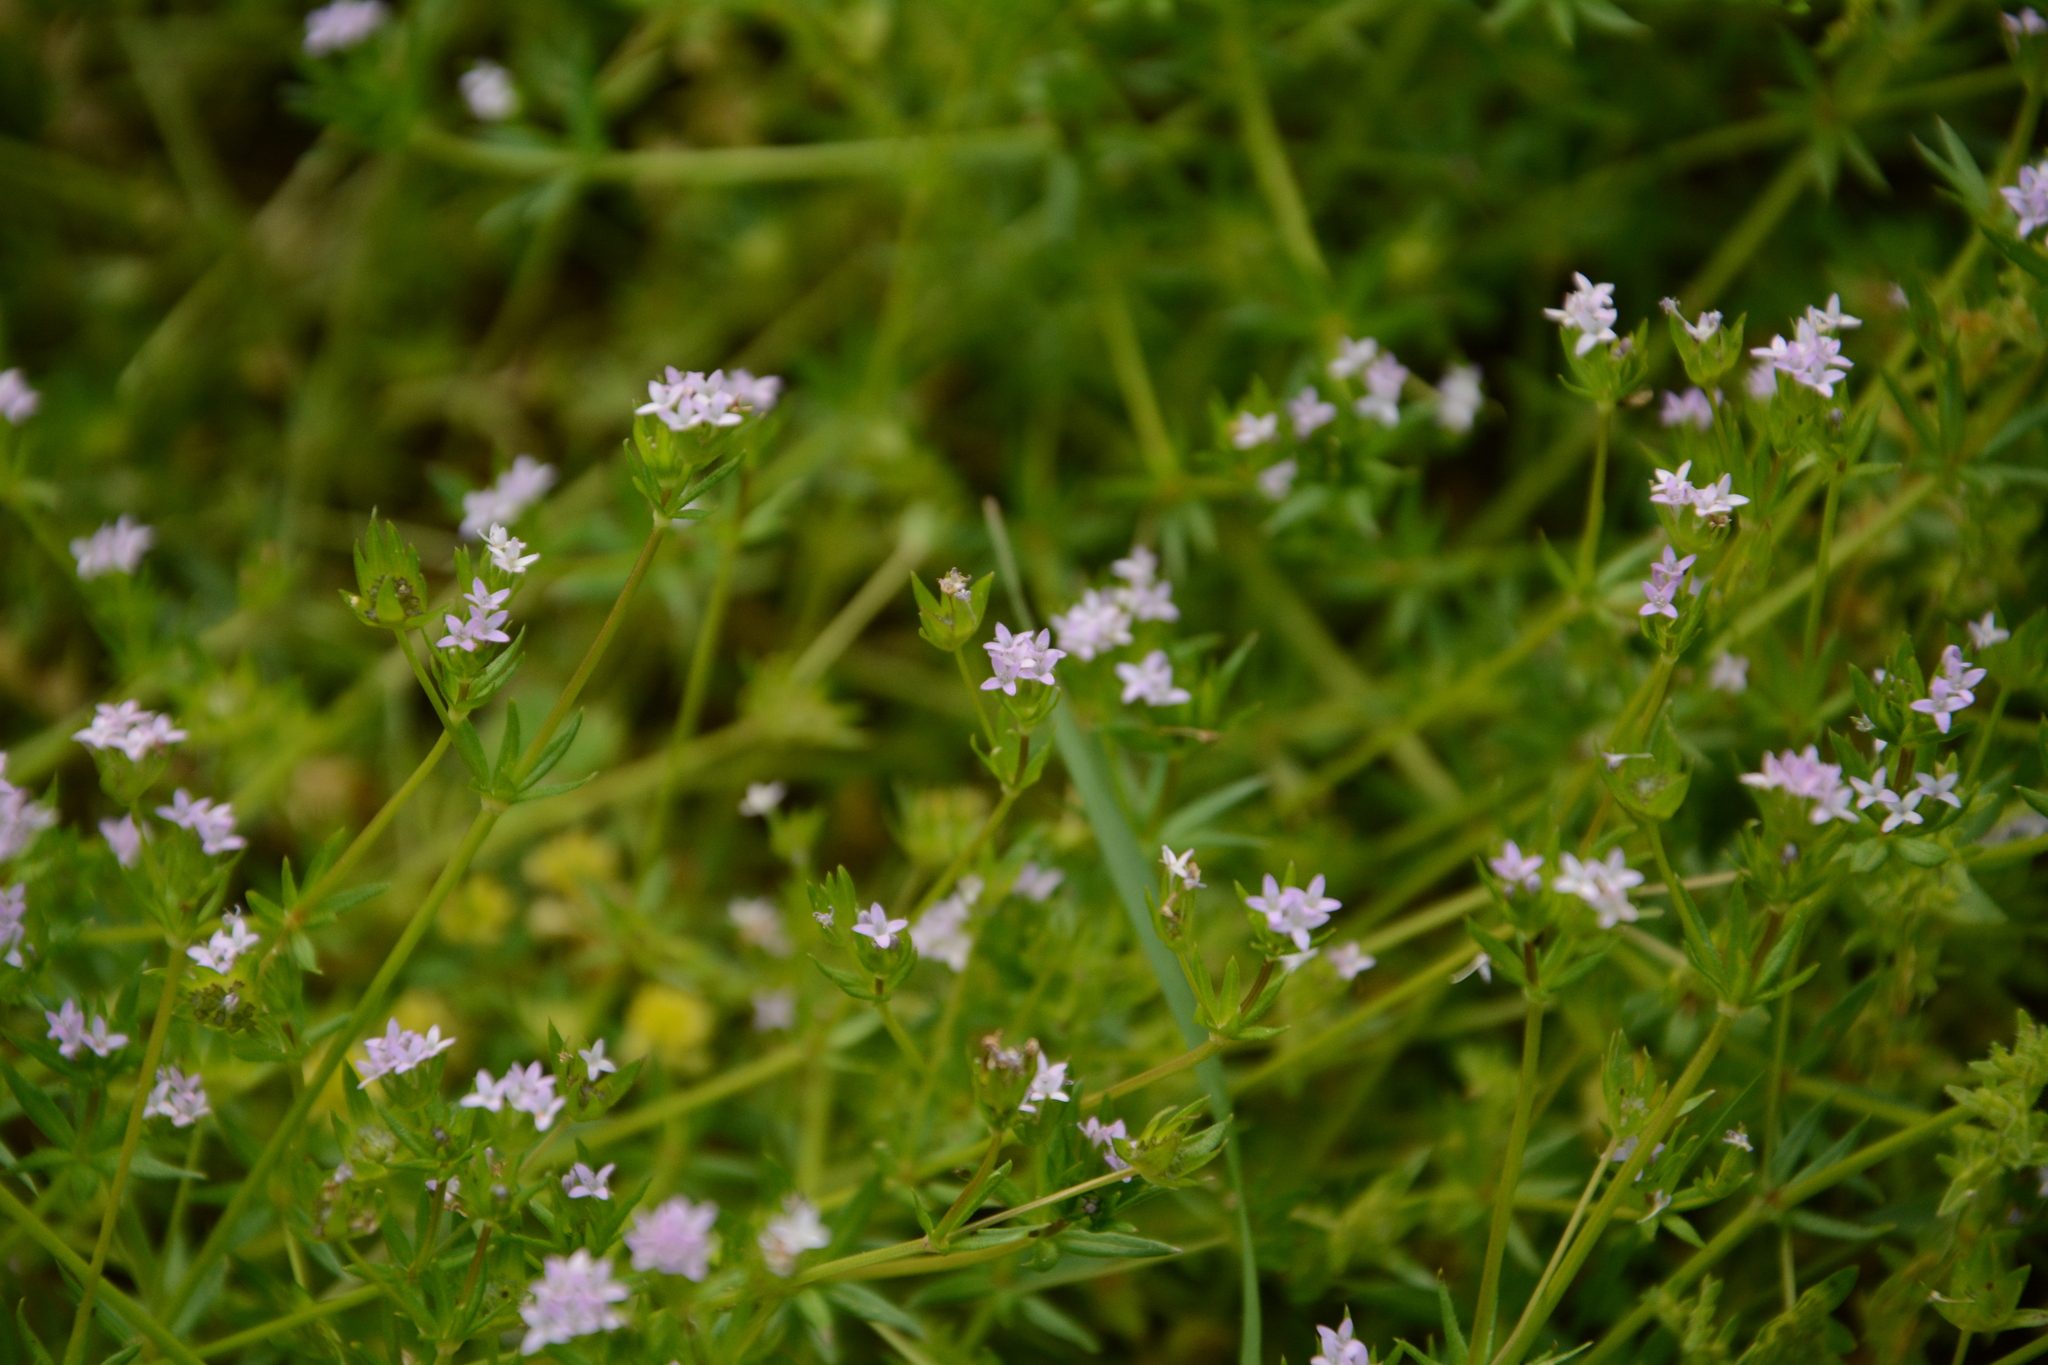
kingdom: Plantae
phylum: Tracheophyta
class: Magnoliopsida
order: Gentianales
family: Rubiaceae
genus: Sherardia
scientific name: Sherardia arvensis
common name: Field madder
